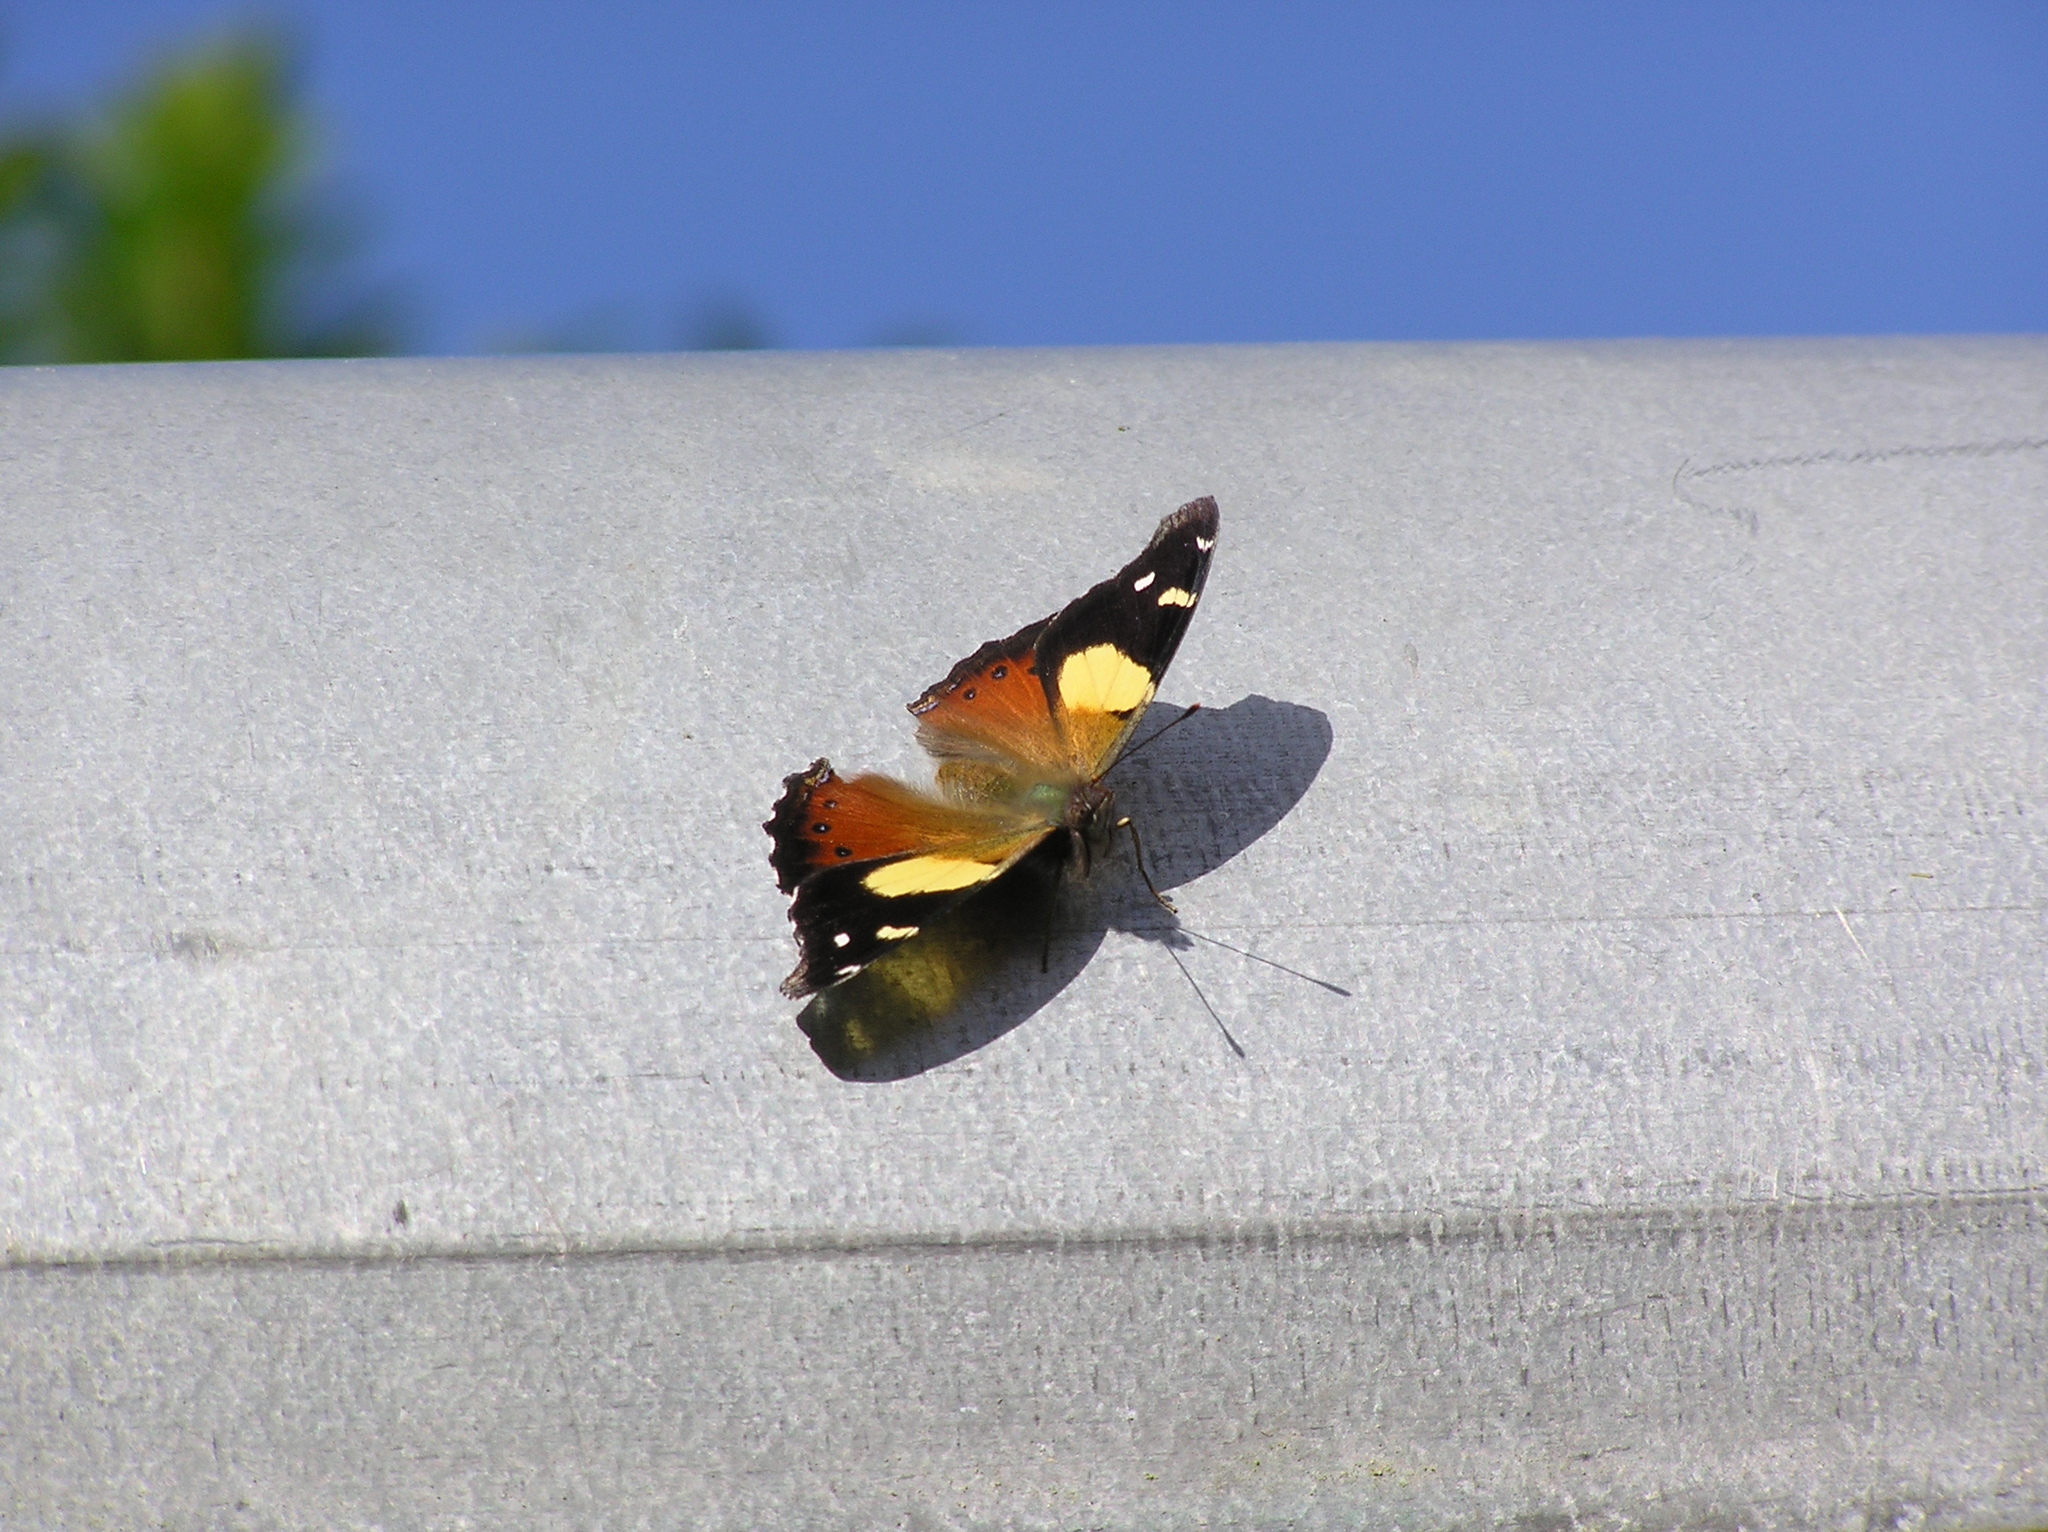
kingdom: Animalia
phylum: Arthropoda
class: Insecta
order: Lepidoptera
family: Nymphalidae
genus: Vanessa
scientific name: Vanessa itea
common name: Yellow admiral
